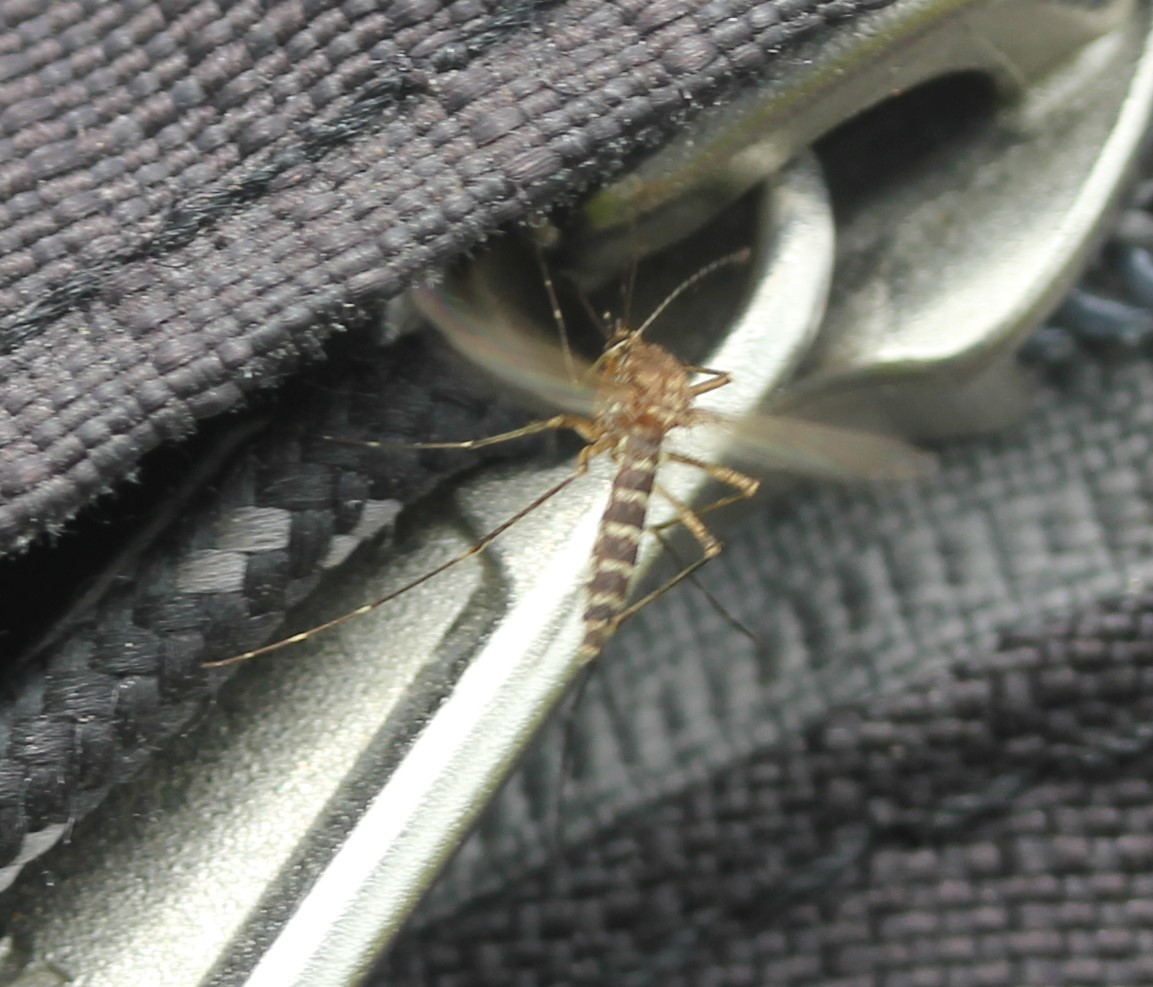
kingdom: Animalia
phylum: Arthropoda
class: Insecta
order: Diptera
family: Culicidae
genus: Aedes
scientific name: Aedes vexans
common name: Inland floodwater mosquito
